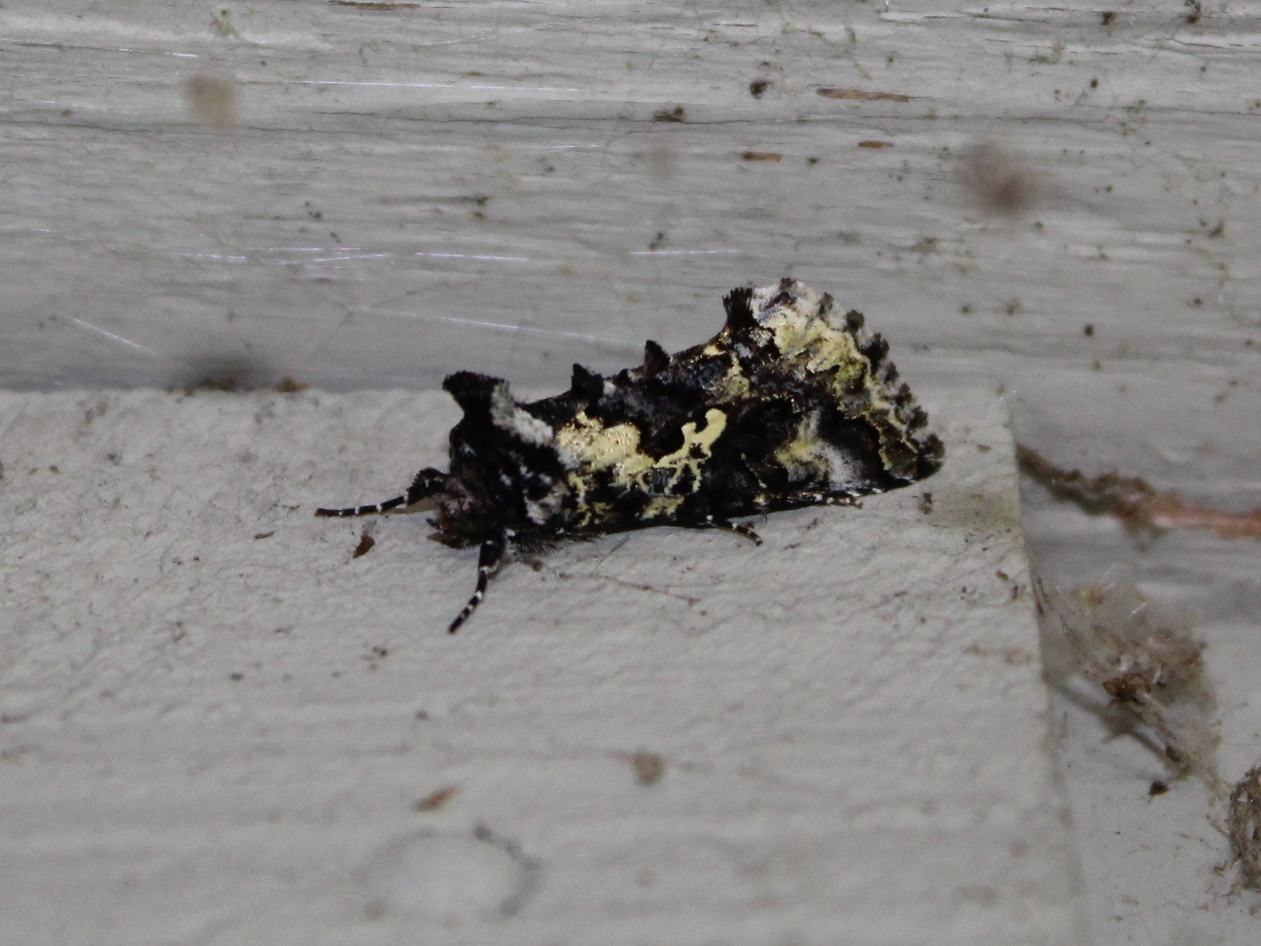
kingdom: Animalia
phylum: Arthropoda
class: Insecta
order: Lepidoptera
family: Noctuidae
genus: Syngrapha
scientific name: Syngrapha rectangula
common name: Angulated cutworm
